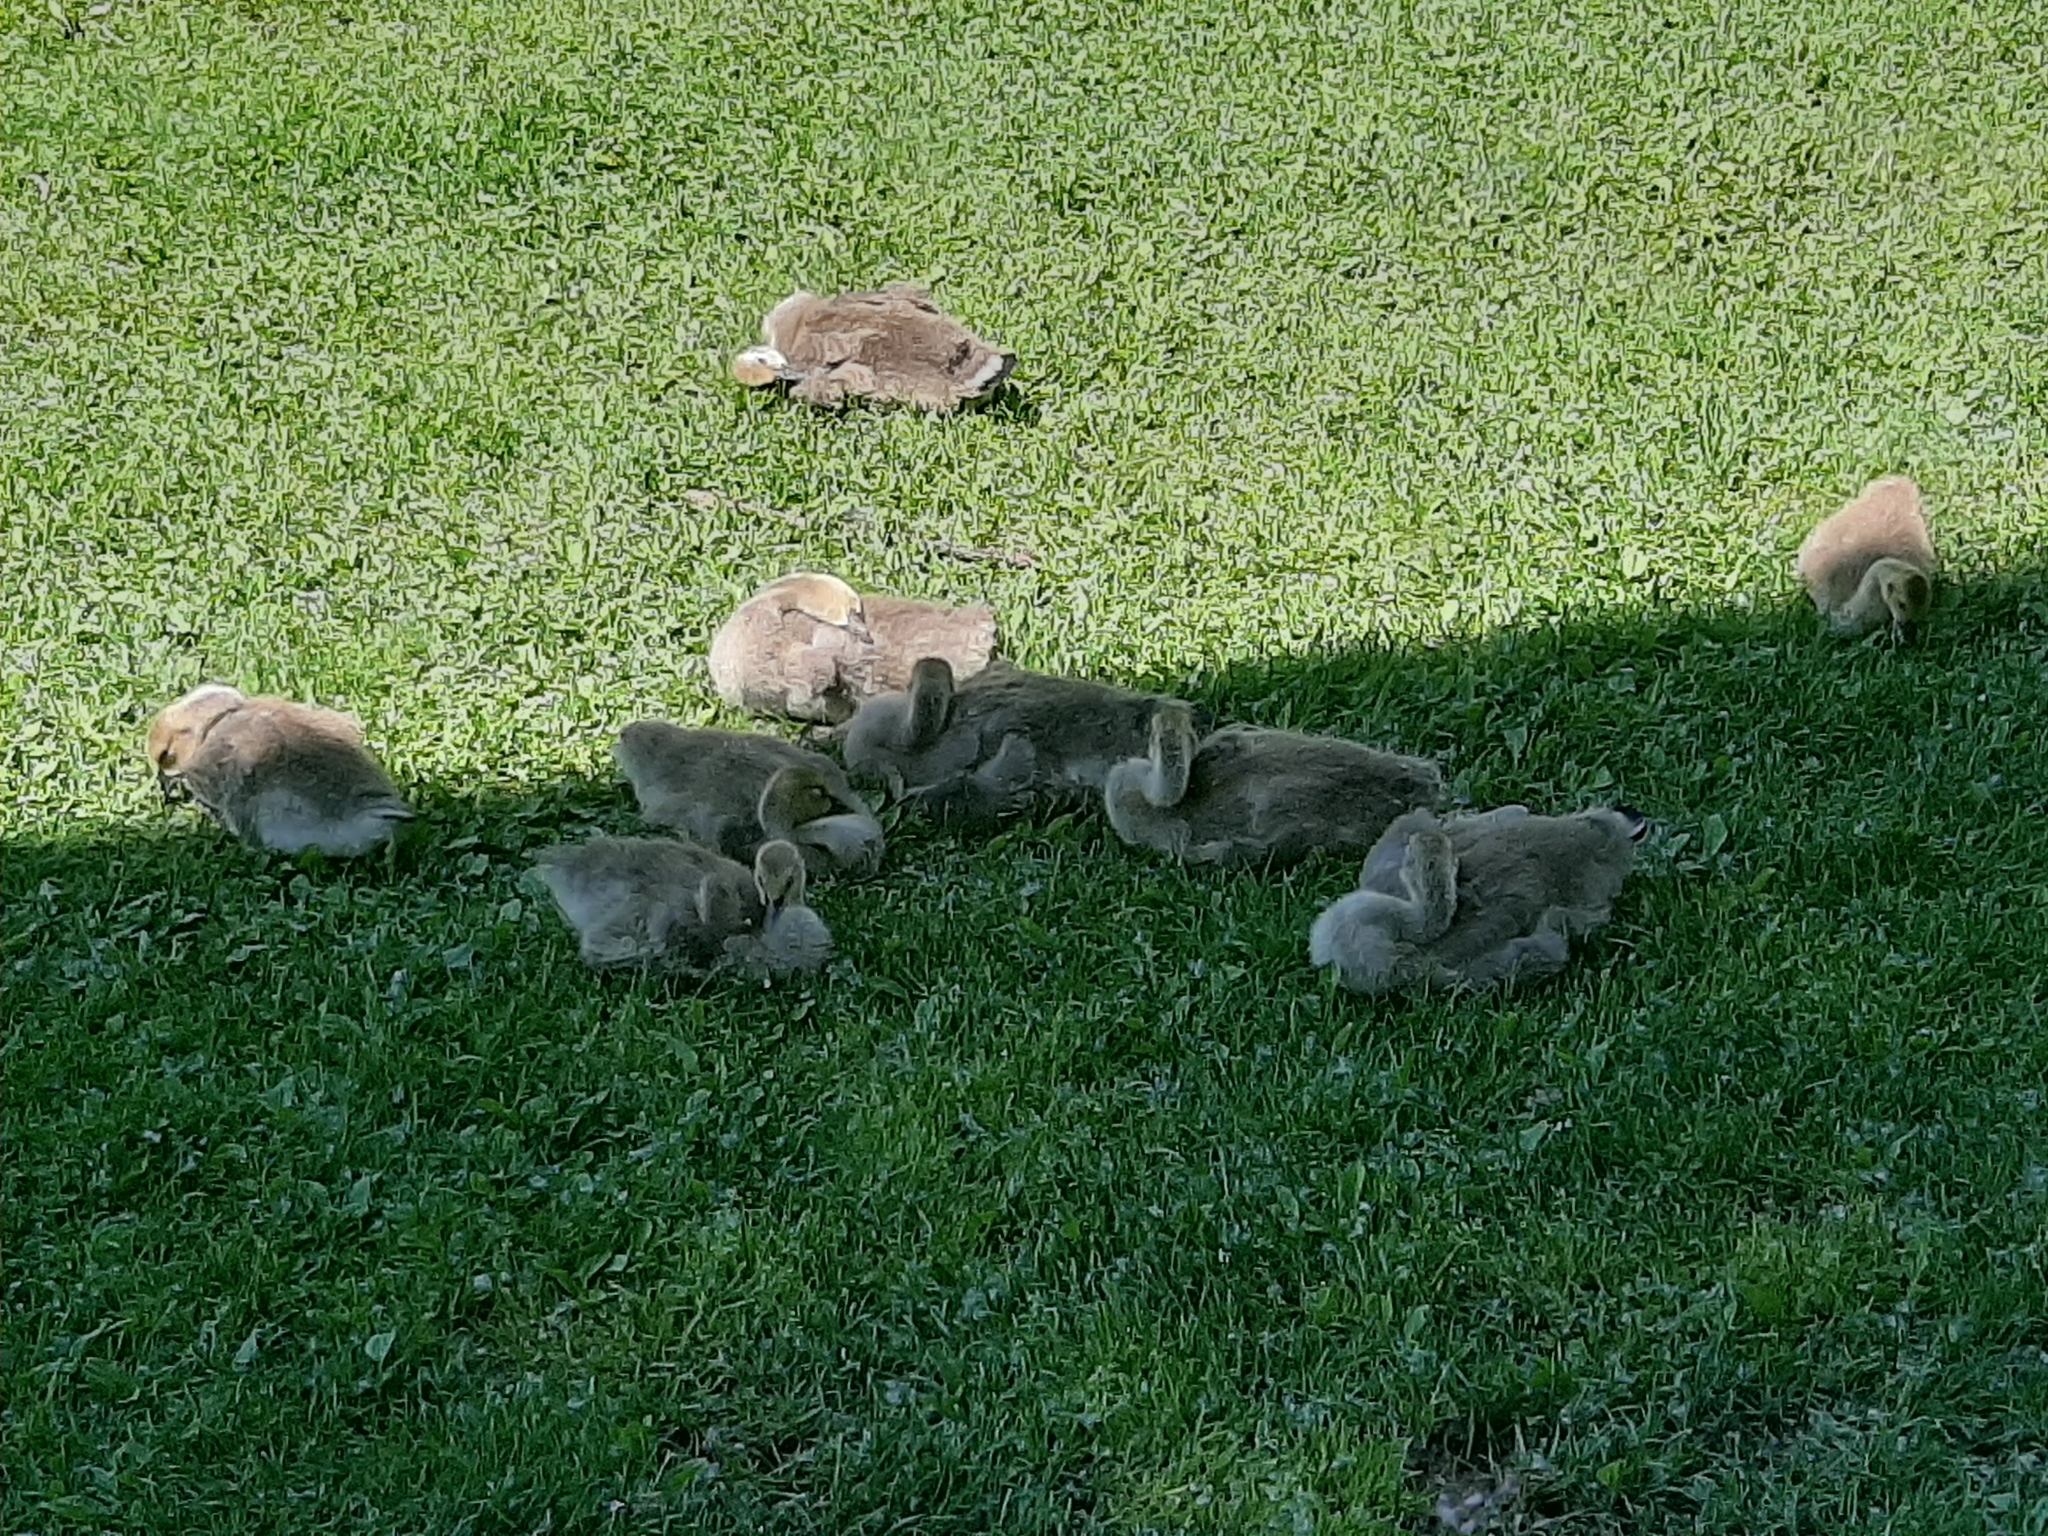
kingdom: Animalia
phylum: Chordata
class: Aves
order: Anseriformes
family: Anatidae
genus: Branta
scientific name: Branta canadensis
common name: Canada goose
